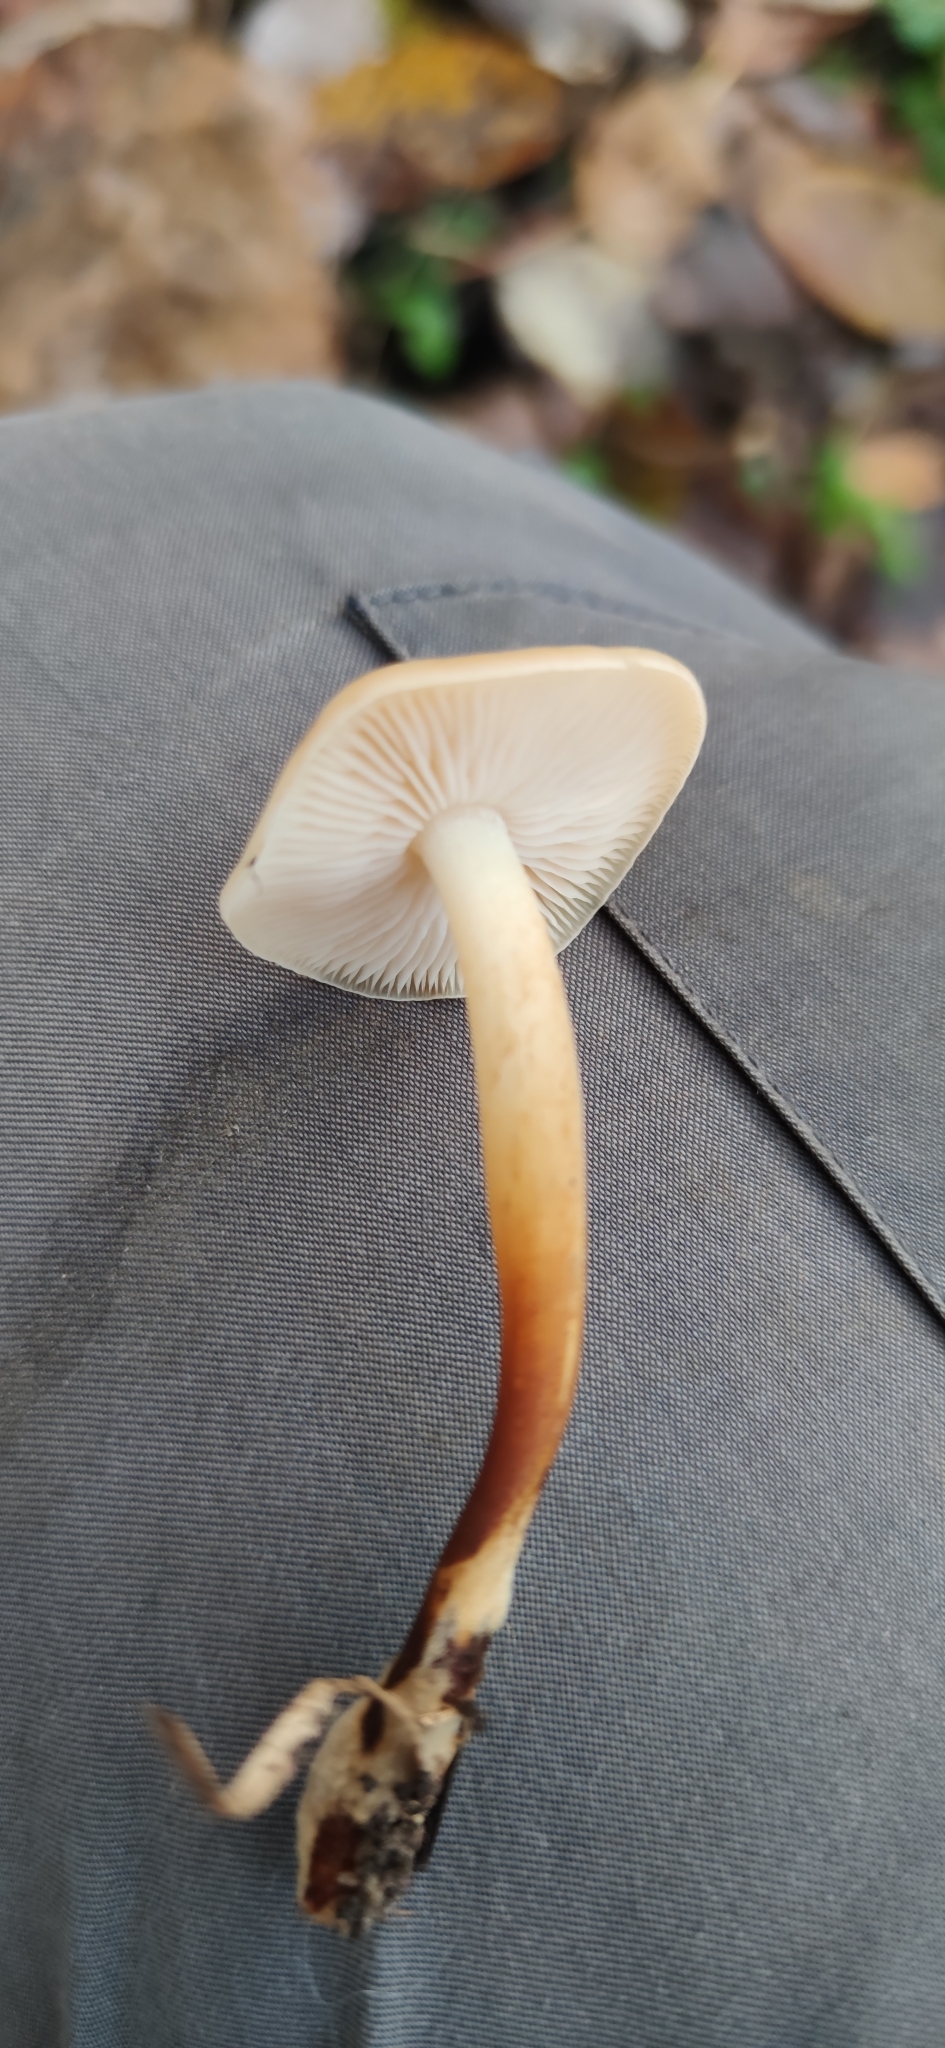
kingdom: Fungi
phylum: Basidiomycota
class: Agaricomycetes
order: Agaricales
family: Physalacriaceae
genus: Flammulina
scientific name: Flammulina
